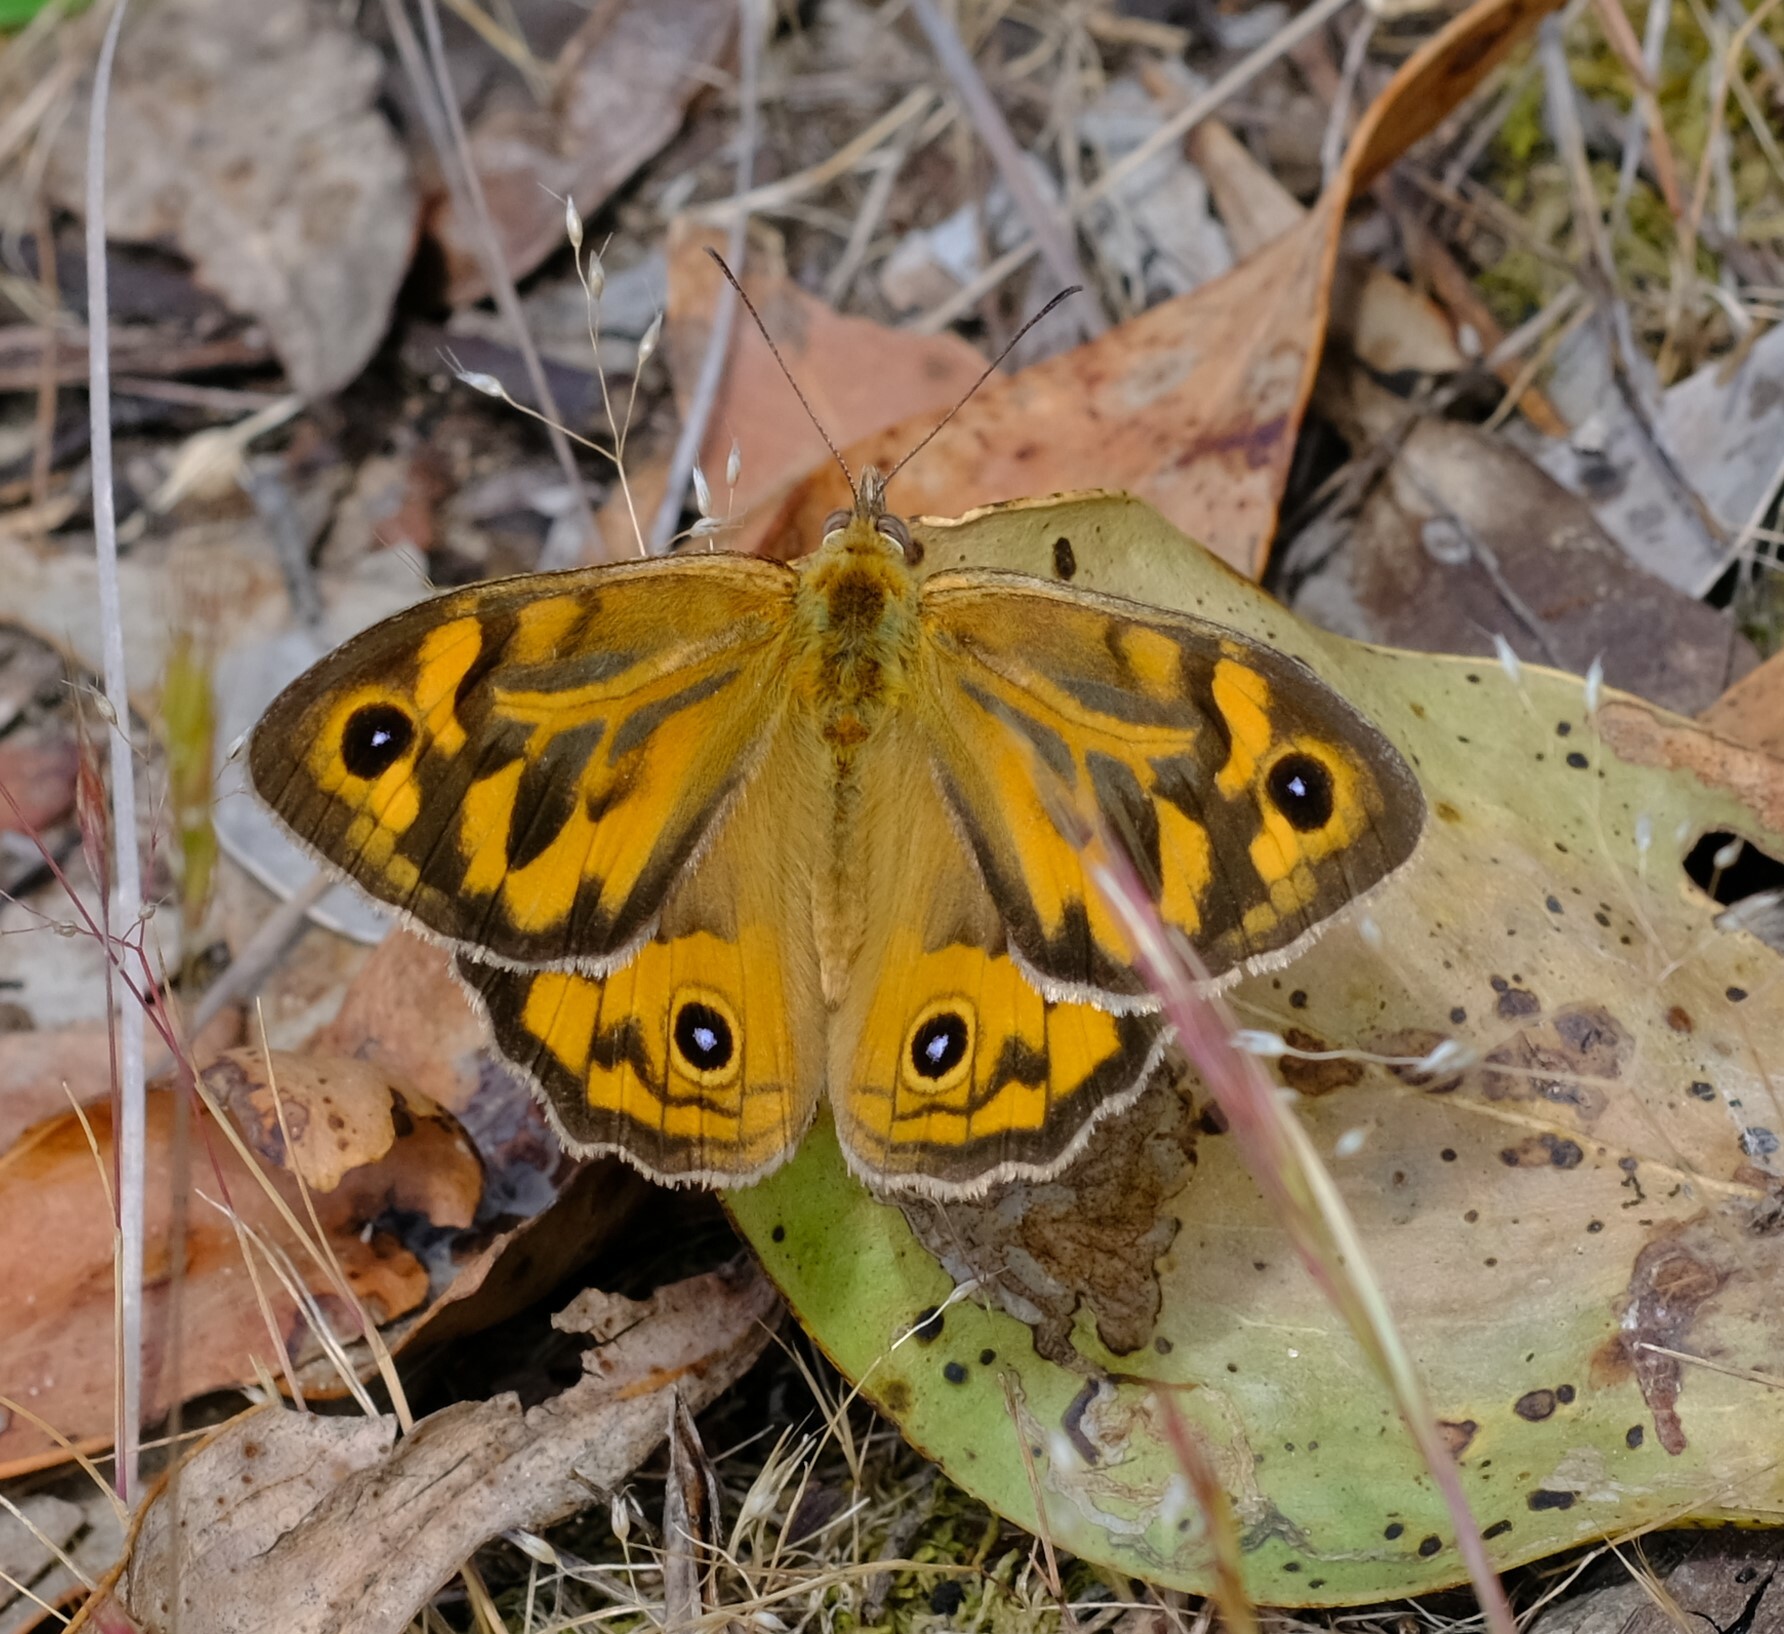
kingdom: Animalia
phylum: Arthropoda
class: Insecta
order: Lepidoptera
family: Nymphalidae
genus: Heteronympha
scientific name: Heteronympha merope
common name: Common brown
